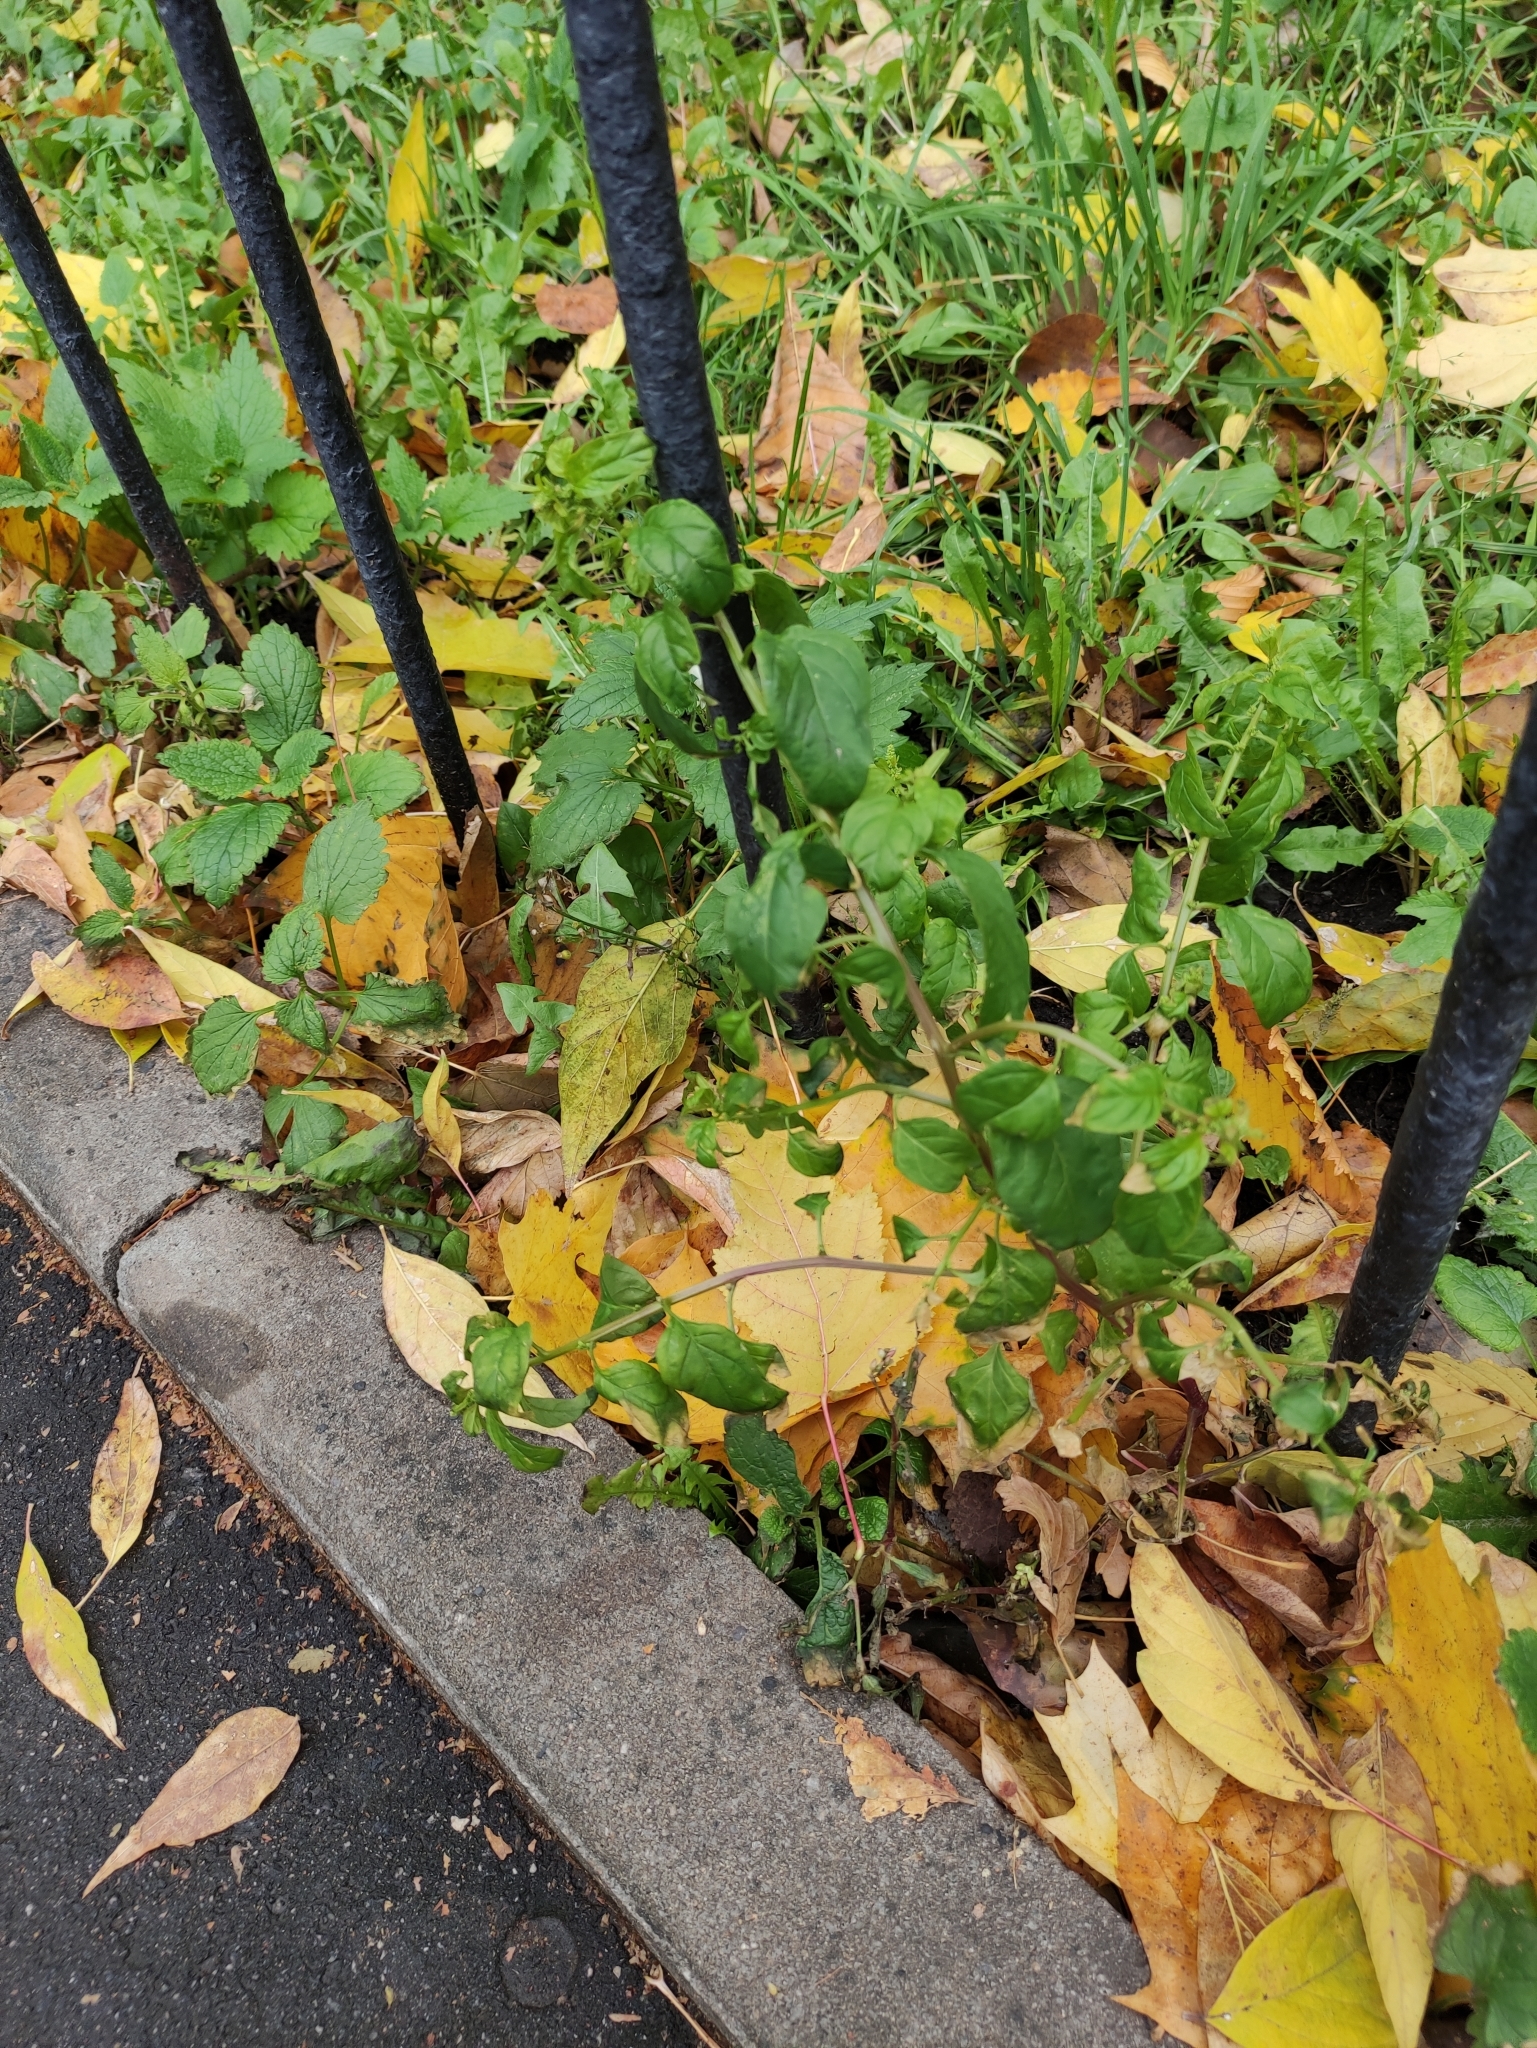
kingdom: Plantae
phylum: Tracheophyta
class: Magnoliopsida
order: Caryophyllales
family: Amaranthaceae
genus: Lipandra
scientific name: Lipandra polysperma
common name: Many-seed goosefoot
